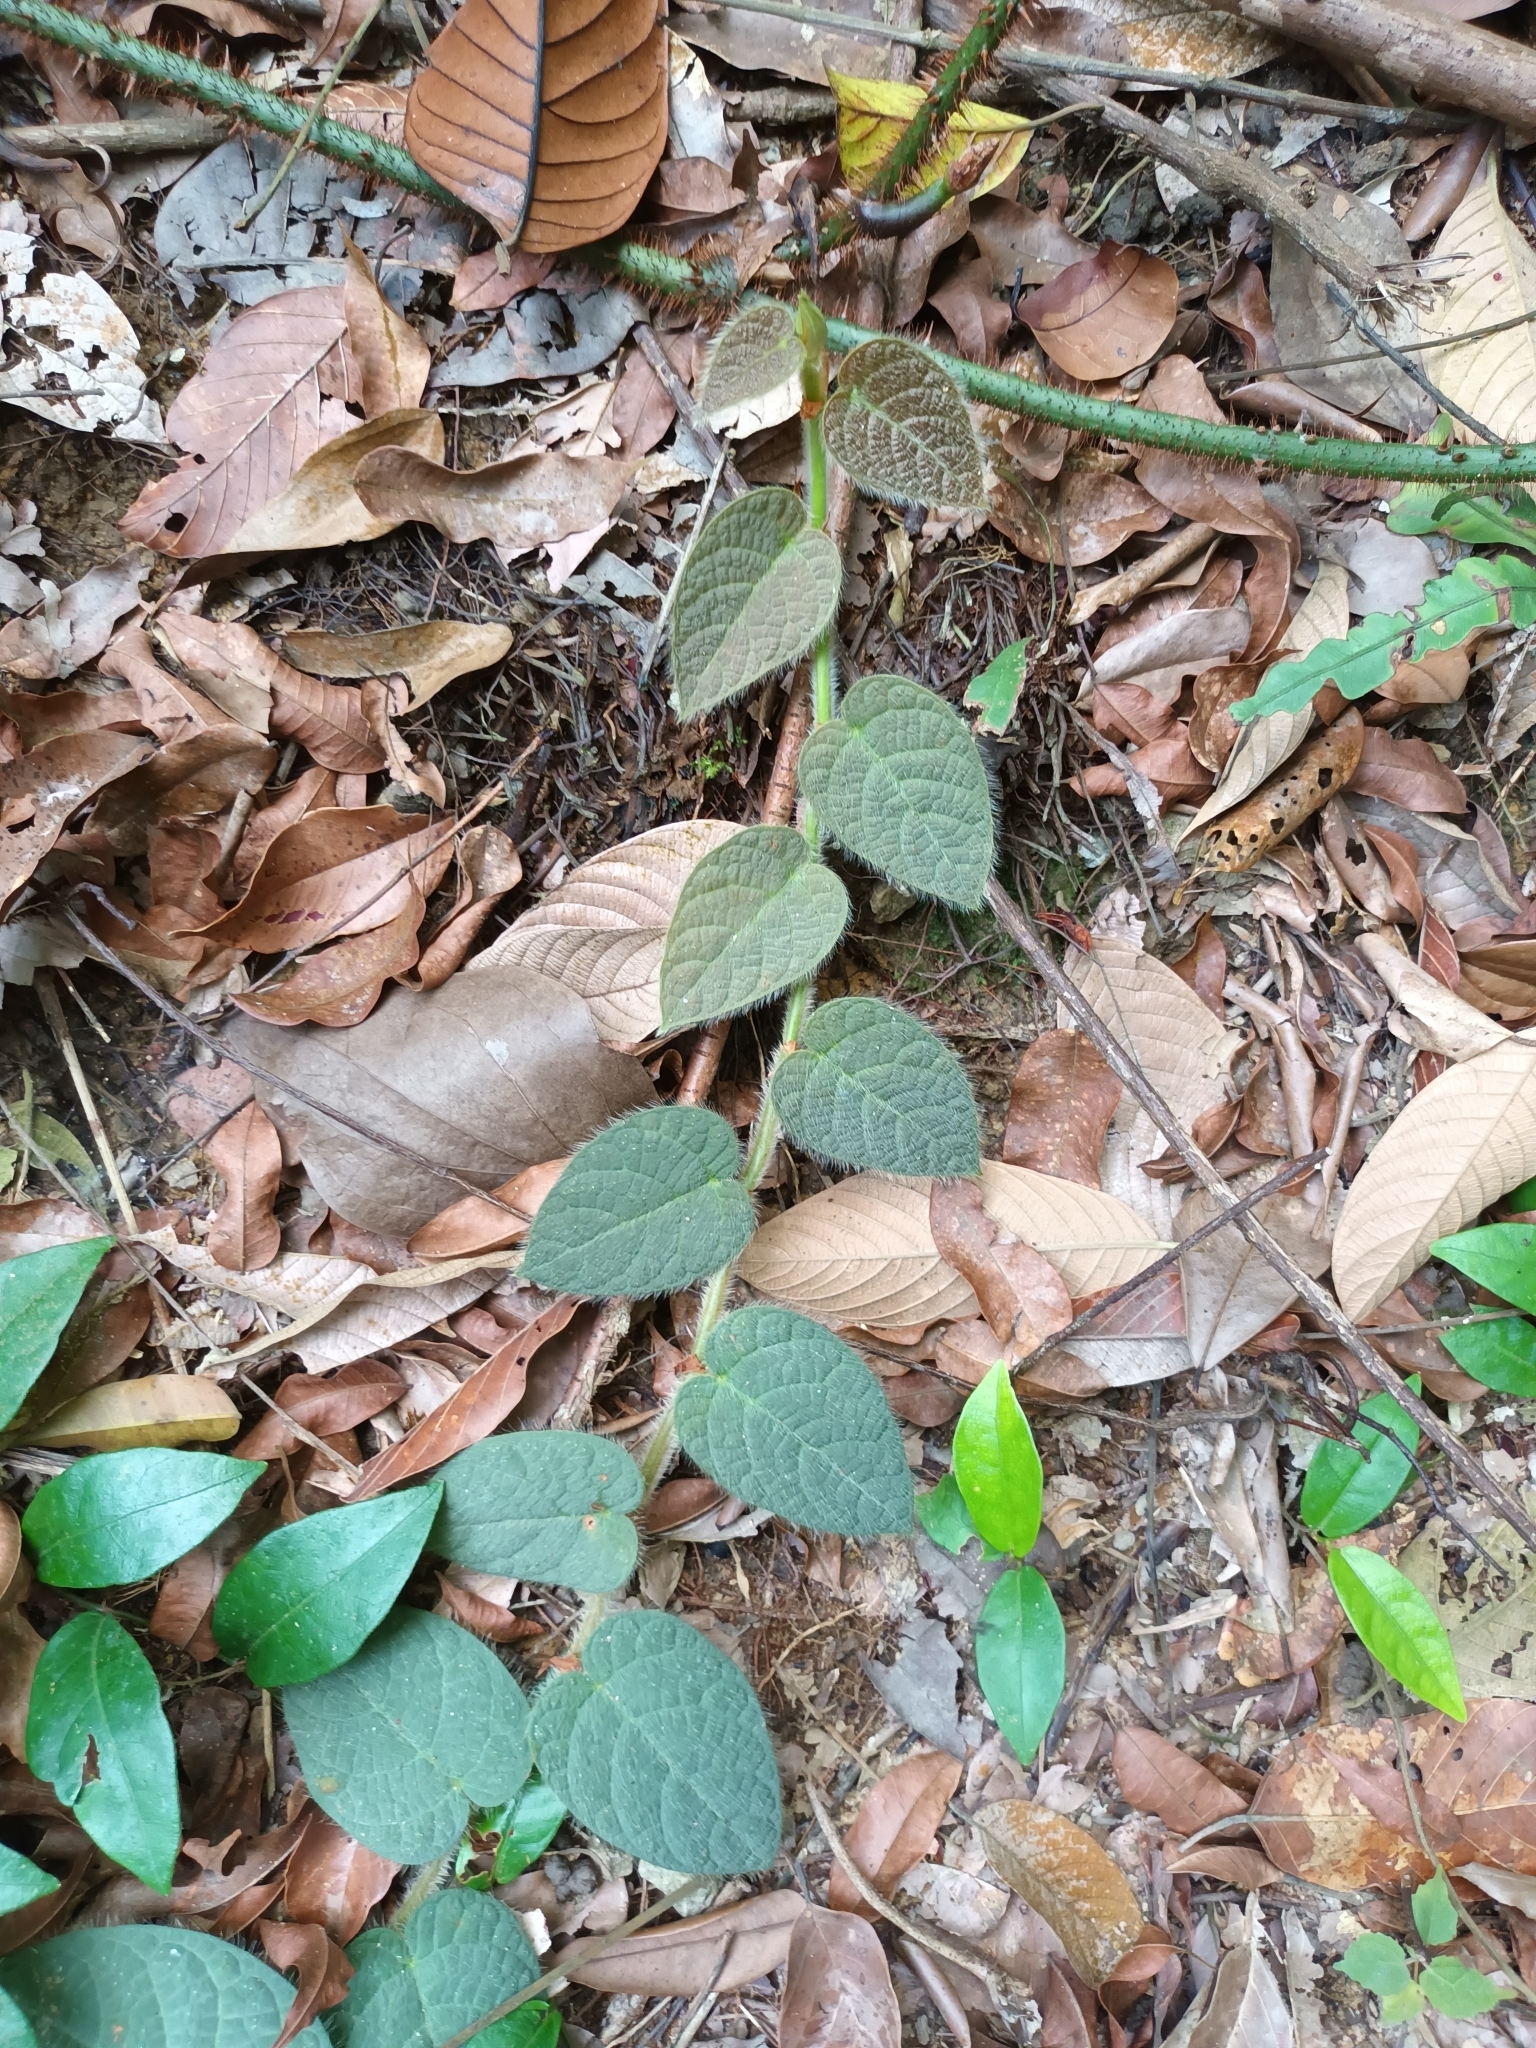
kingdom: Plantae
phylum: Tracheophyta
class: Magnoliopsida
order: Rosales
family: Moraceae
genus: Ficus
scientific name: Ficus villosa
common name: Villous fig
